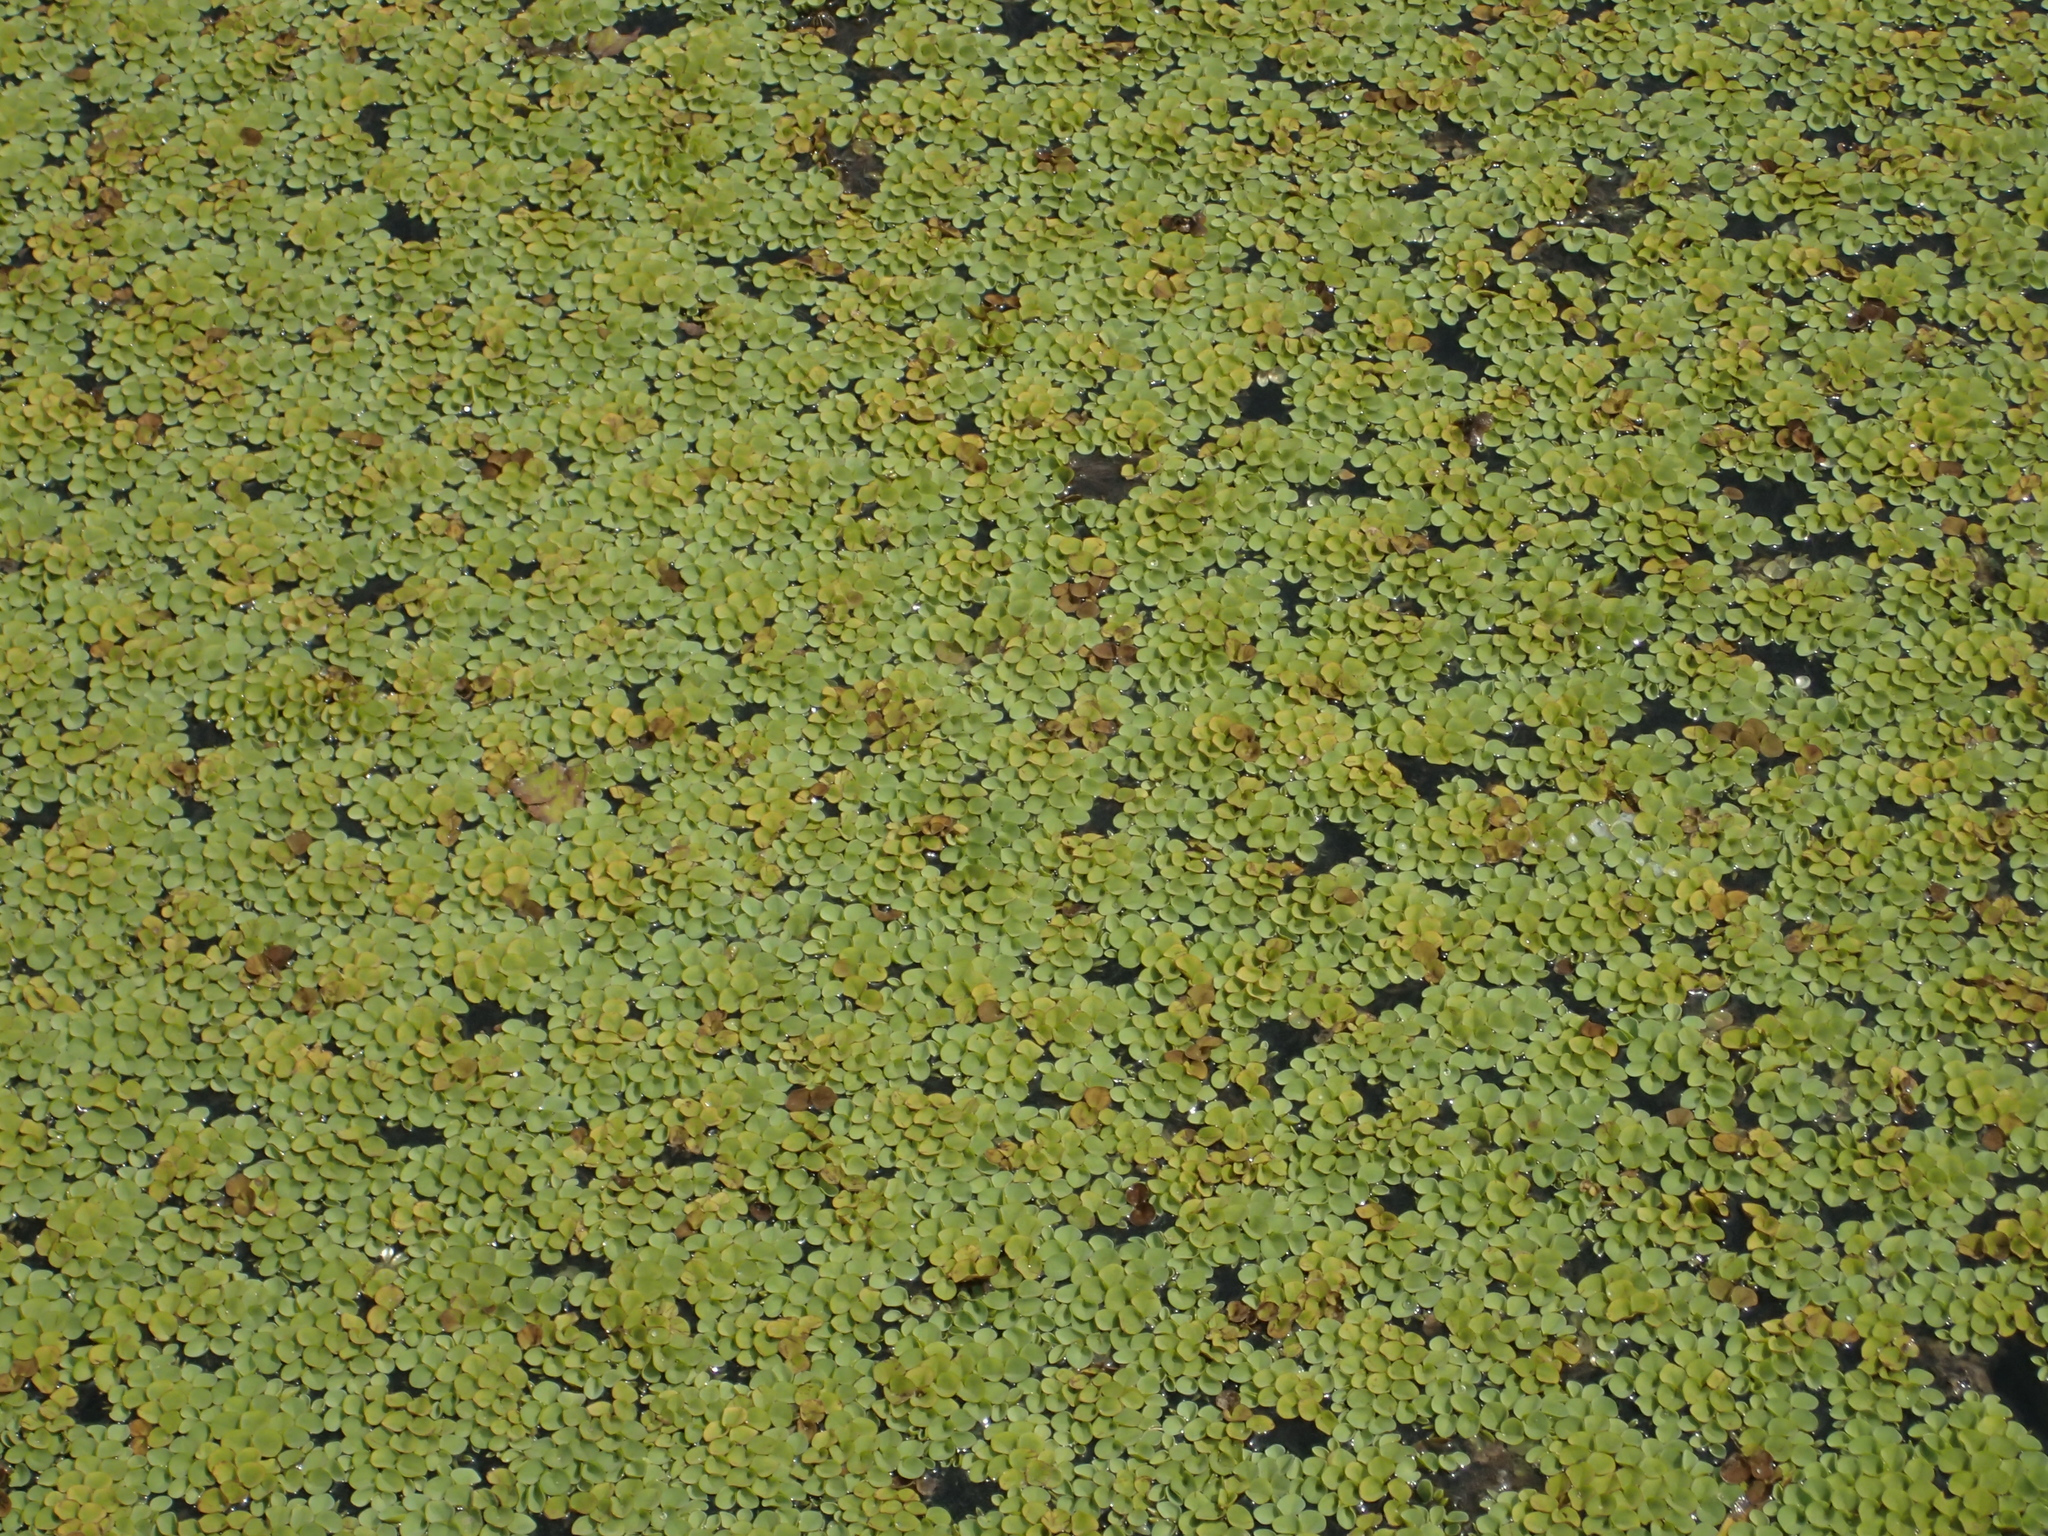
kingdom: Plantae
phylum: Tracheophyta
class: Polypodiopsida
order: Salviniales
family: Salviniaceae
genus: Salvinia
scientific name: Salvinia cucullata
